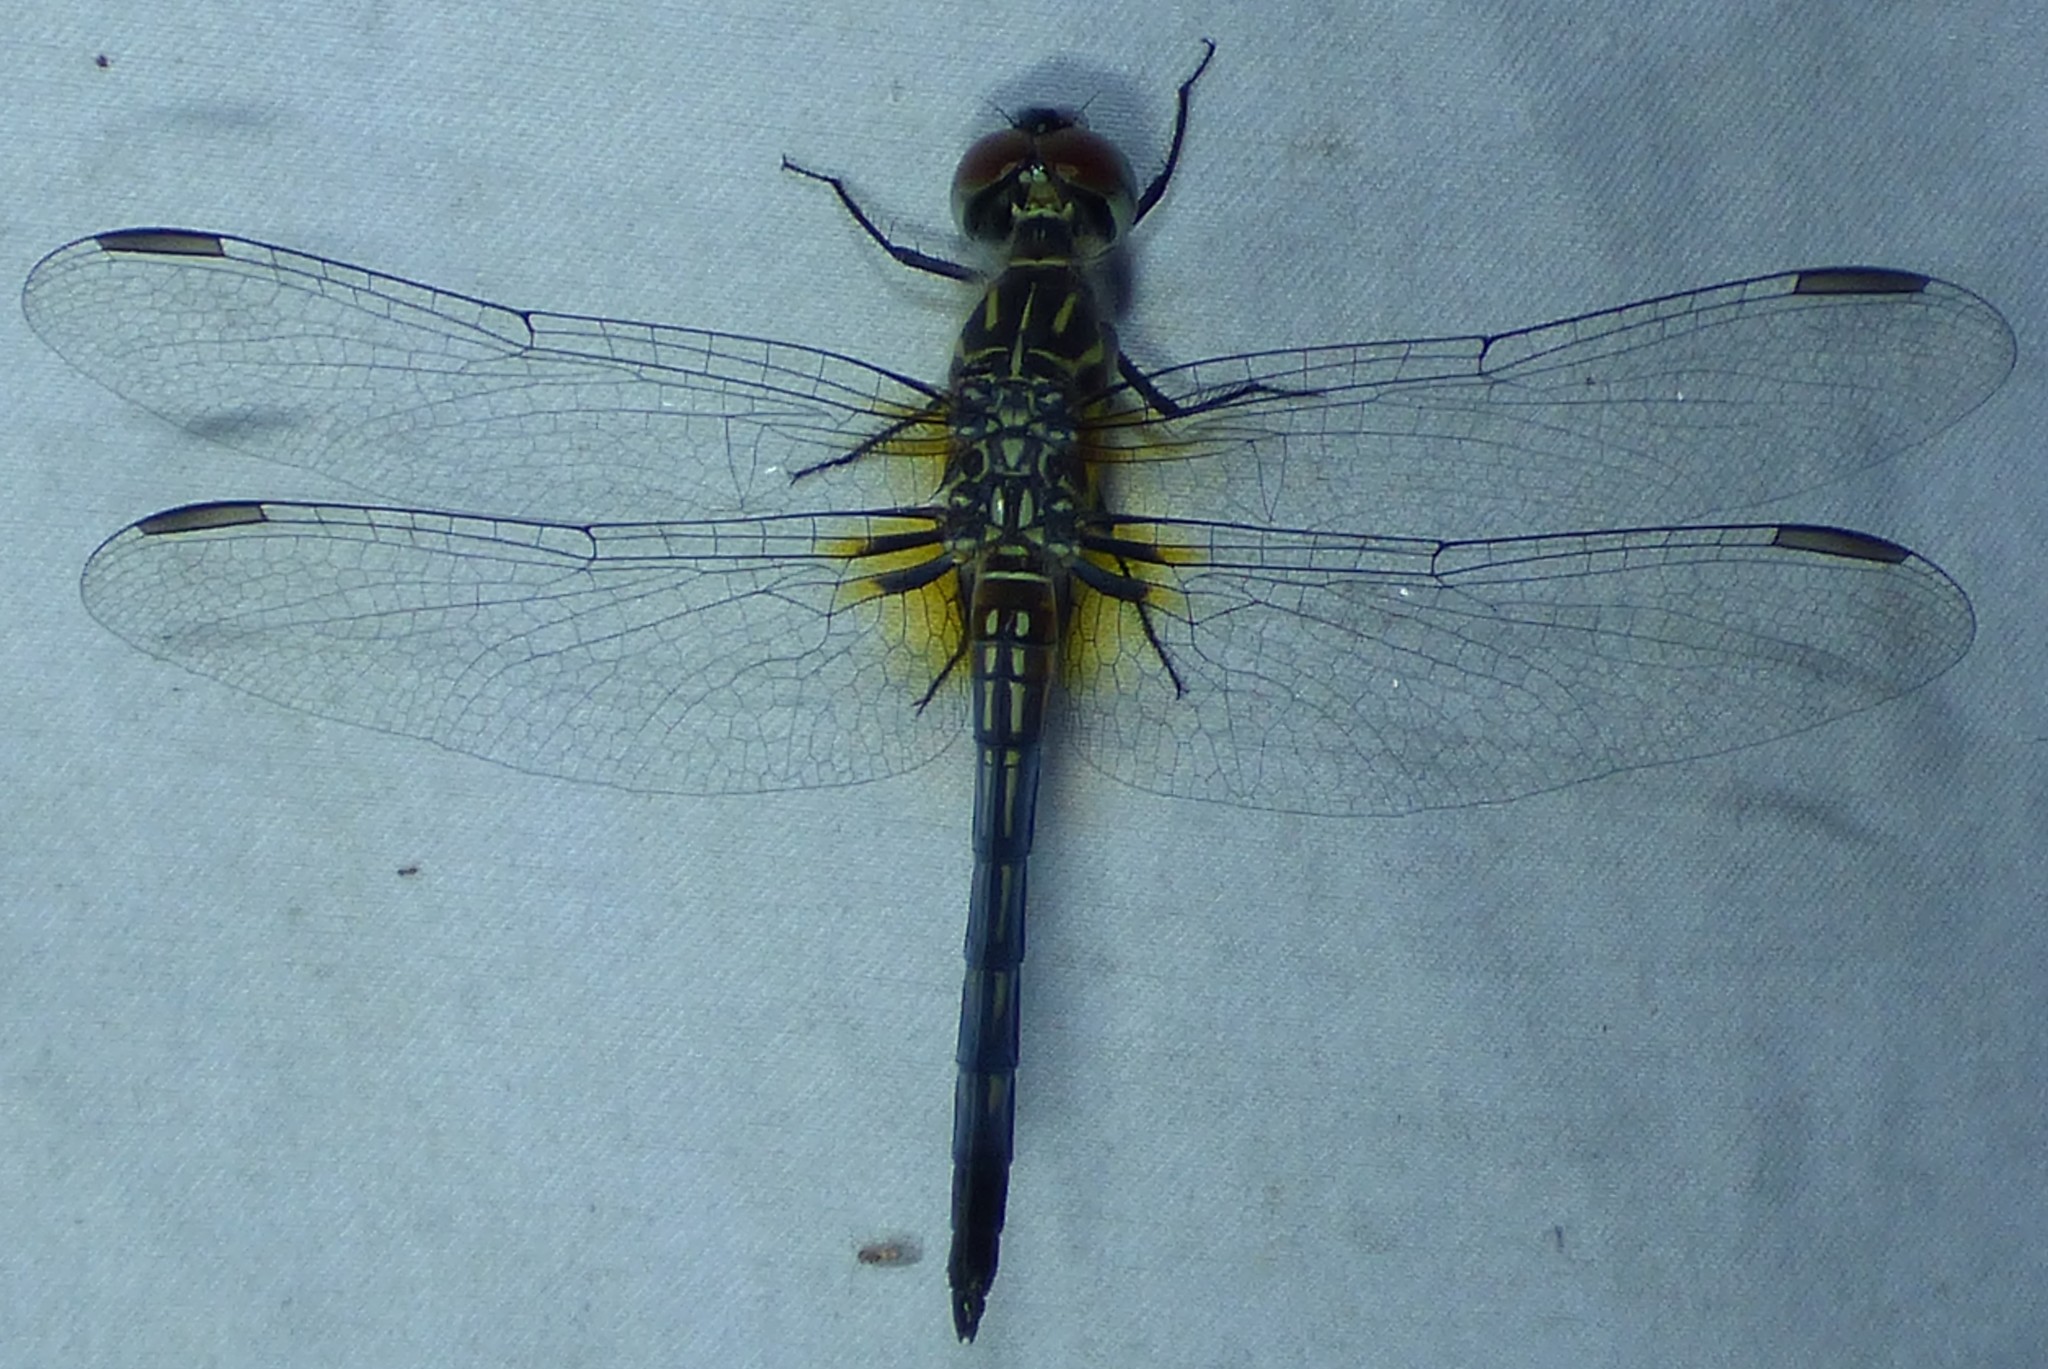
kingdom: Animalia
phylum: Arthropoda
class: Insecta
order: Odonata
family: Libellulidae
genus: Pachydiplax
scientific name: Pachydiplax longipennis
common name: Blue dasher
